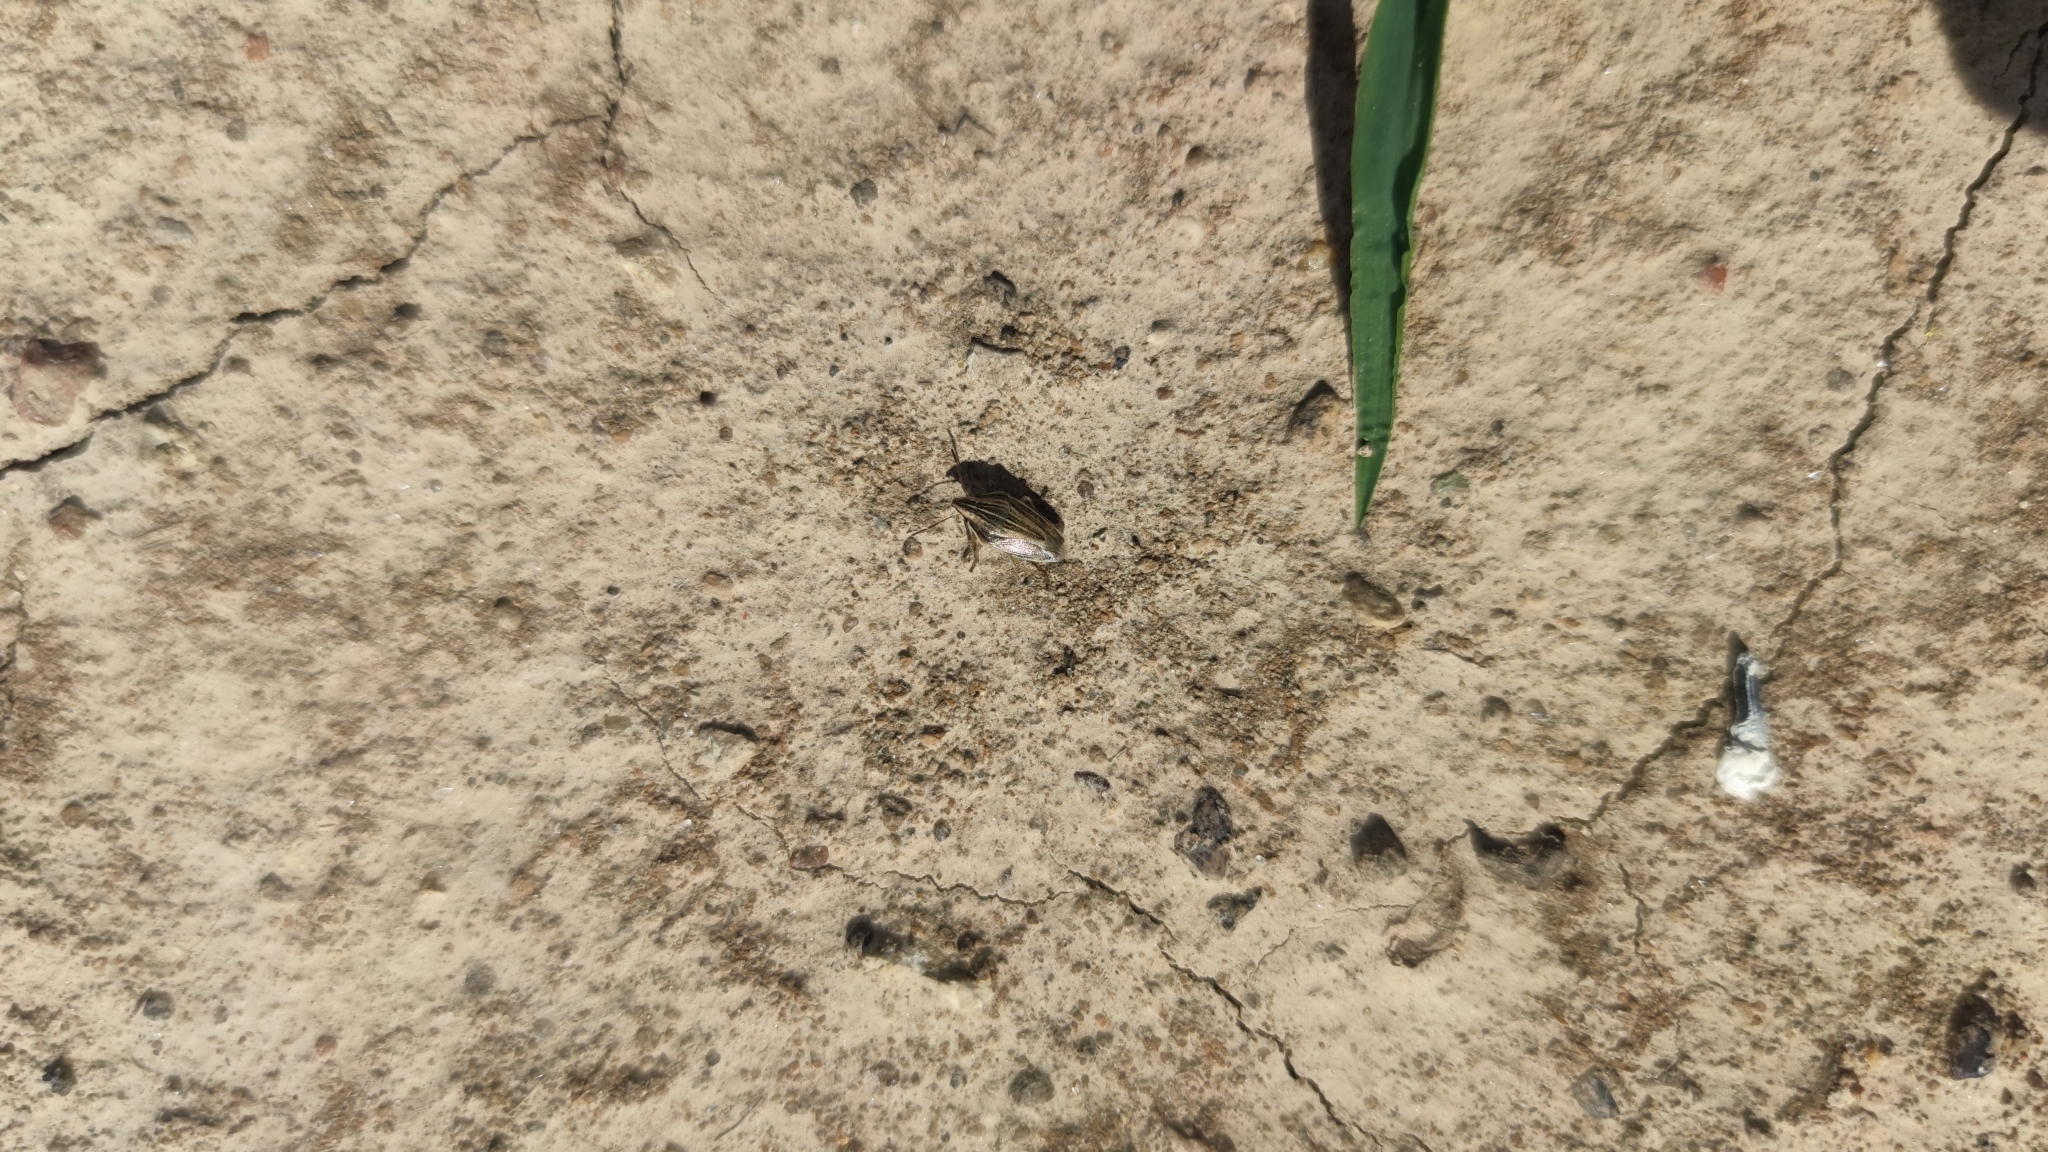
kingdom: Animalia
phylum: Arthropoda
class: Insecta
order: Hemiptera
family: Pentatomidae
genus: Aelia
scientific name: Aelia acuminata
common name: Bishop's mitre
